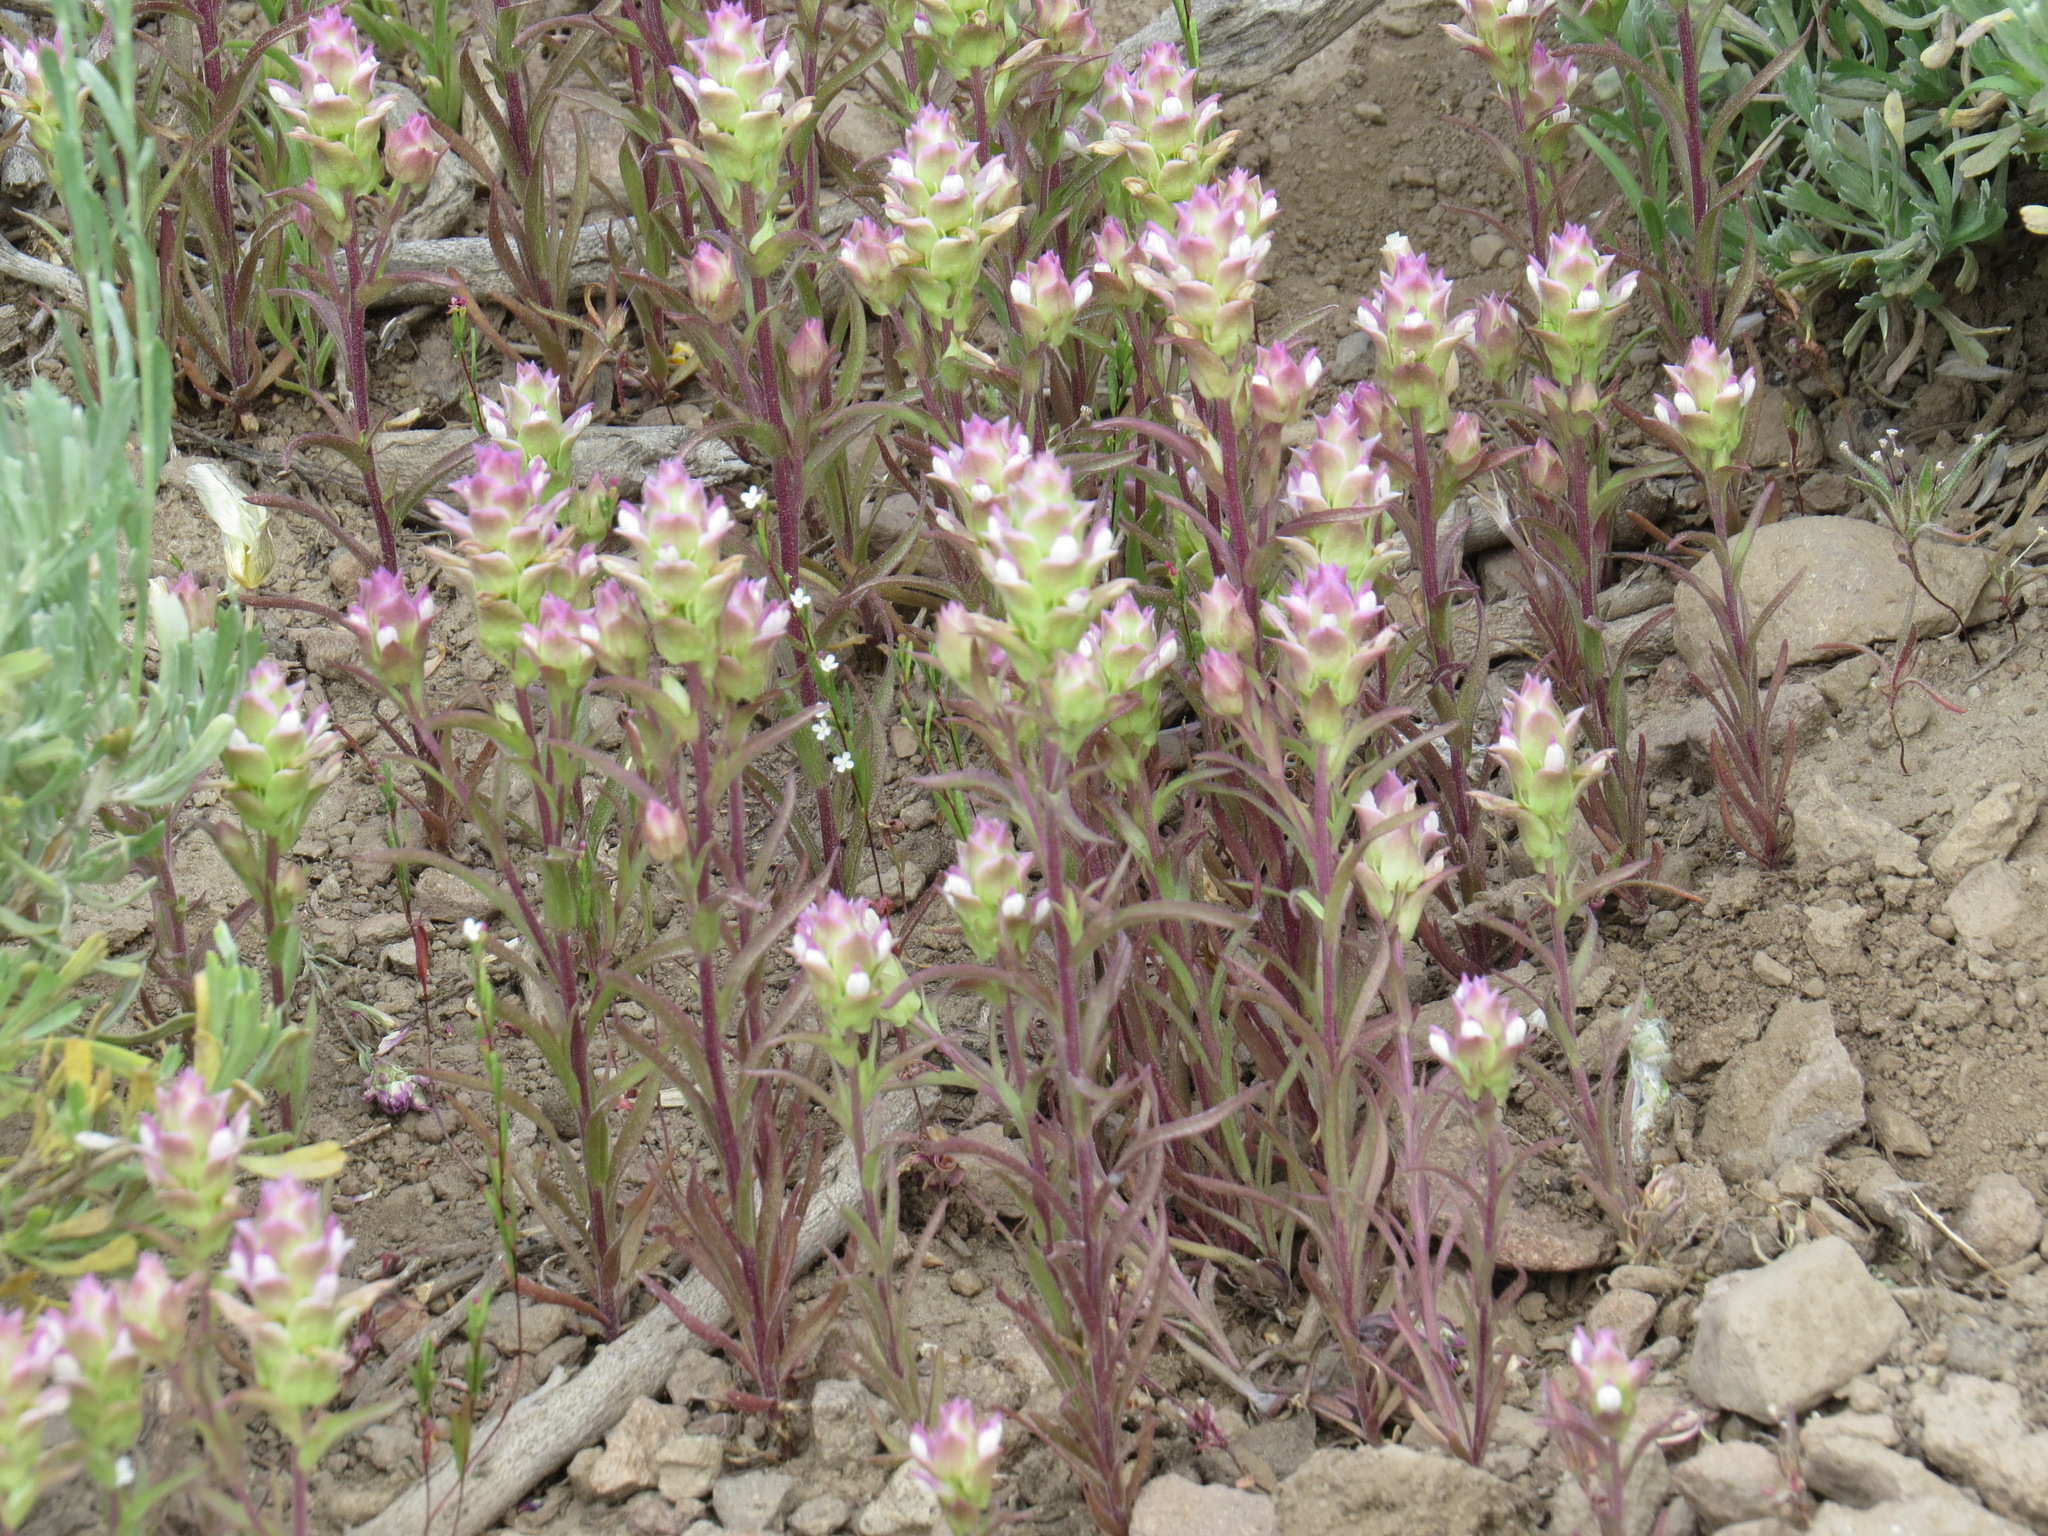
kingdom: Plantae
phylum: Tracheophyta
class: Magnoliopsida
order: Lamiales
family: Orobanchaceae
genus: Orthocarpus
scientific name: Orthocarpus cuspidatus
